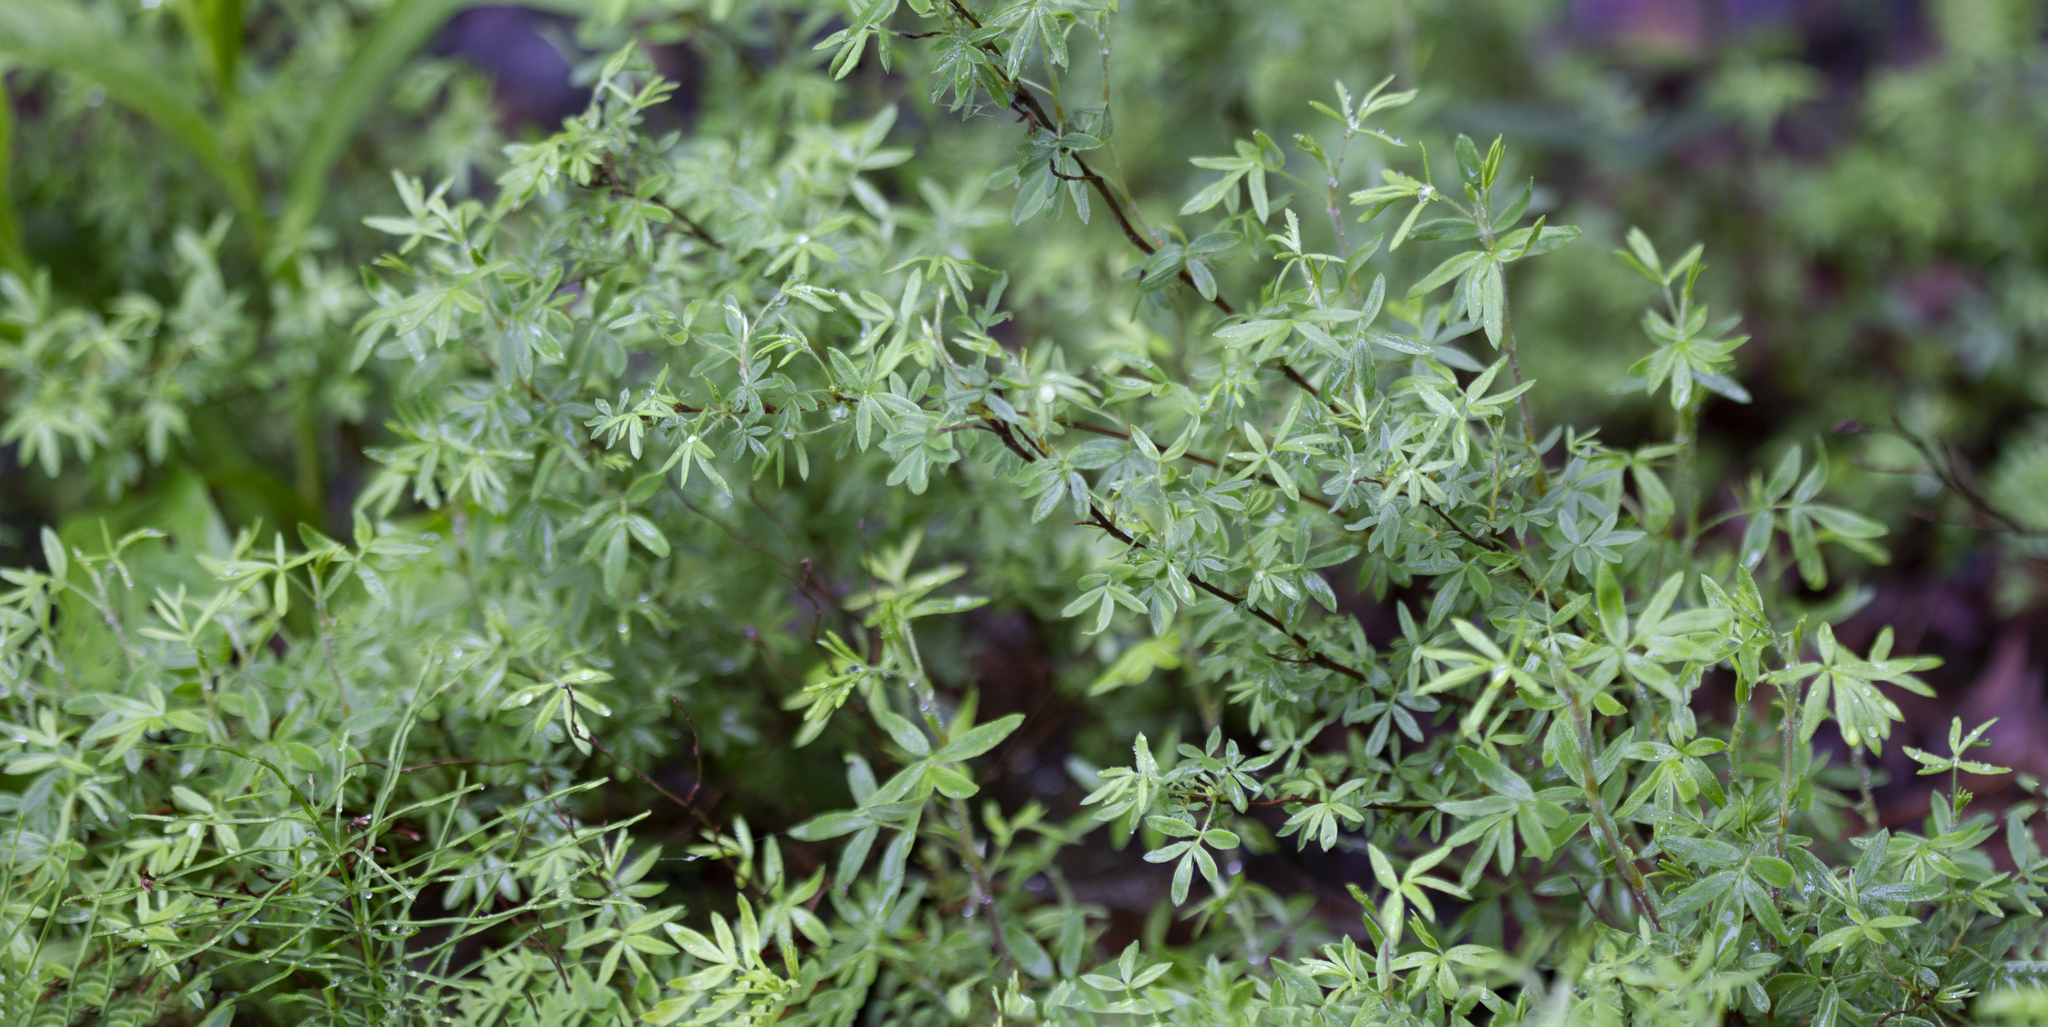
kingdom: Plantae
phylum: Tracheophyta
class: Magnoliopsida
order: Rosales
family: Rosaceae
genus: Dasiphora
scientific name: Dasiphora fruticosa
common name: Shrubby cinquefoil
